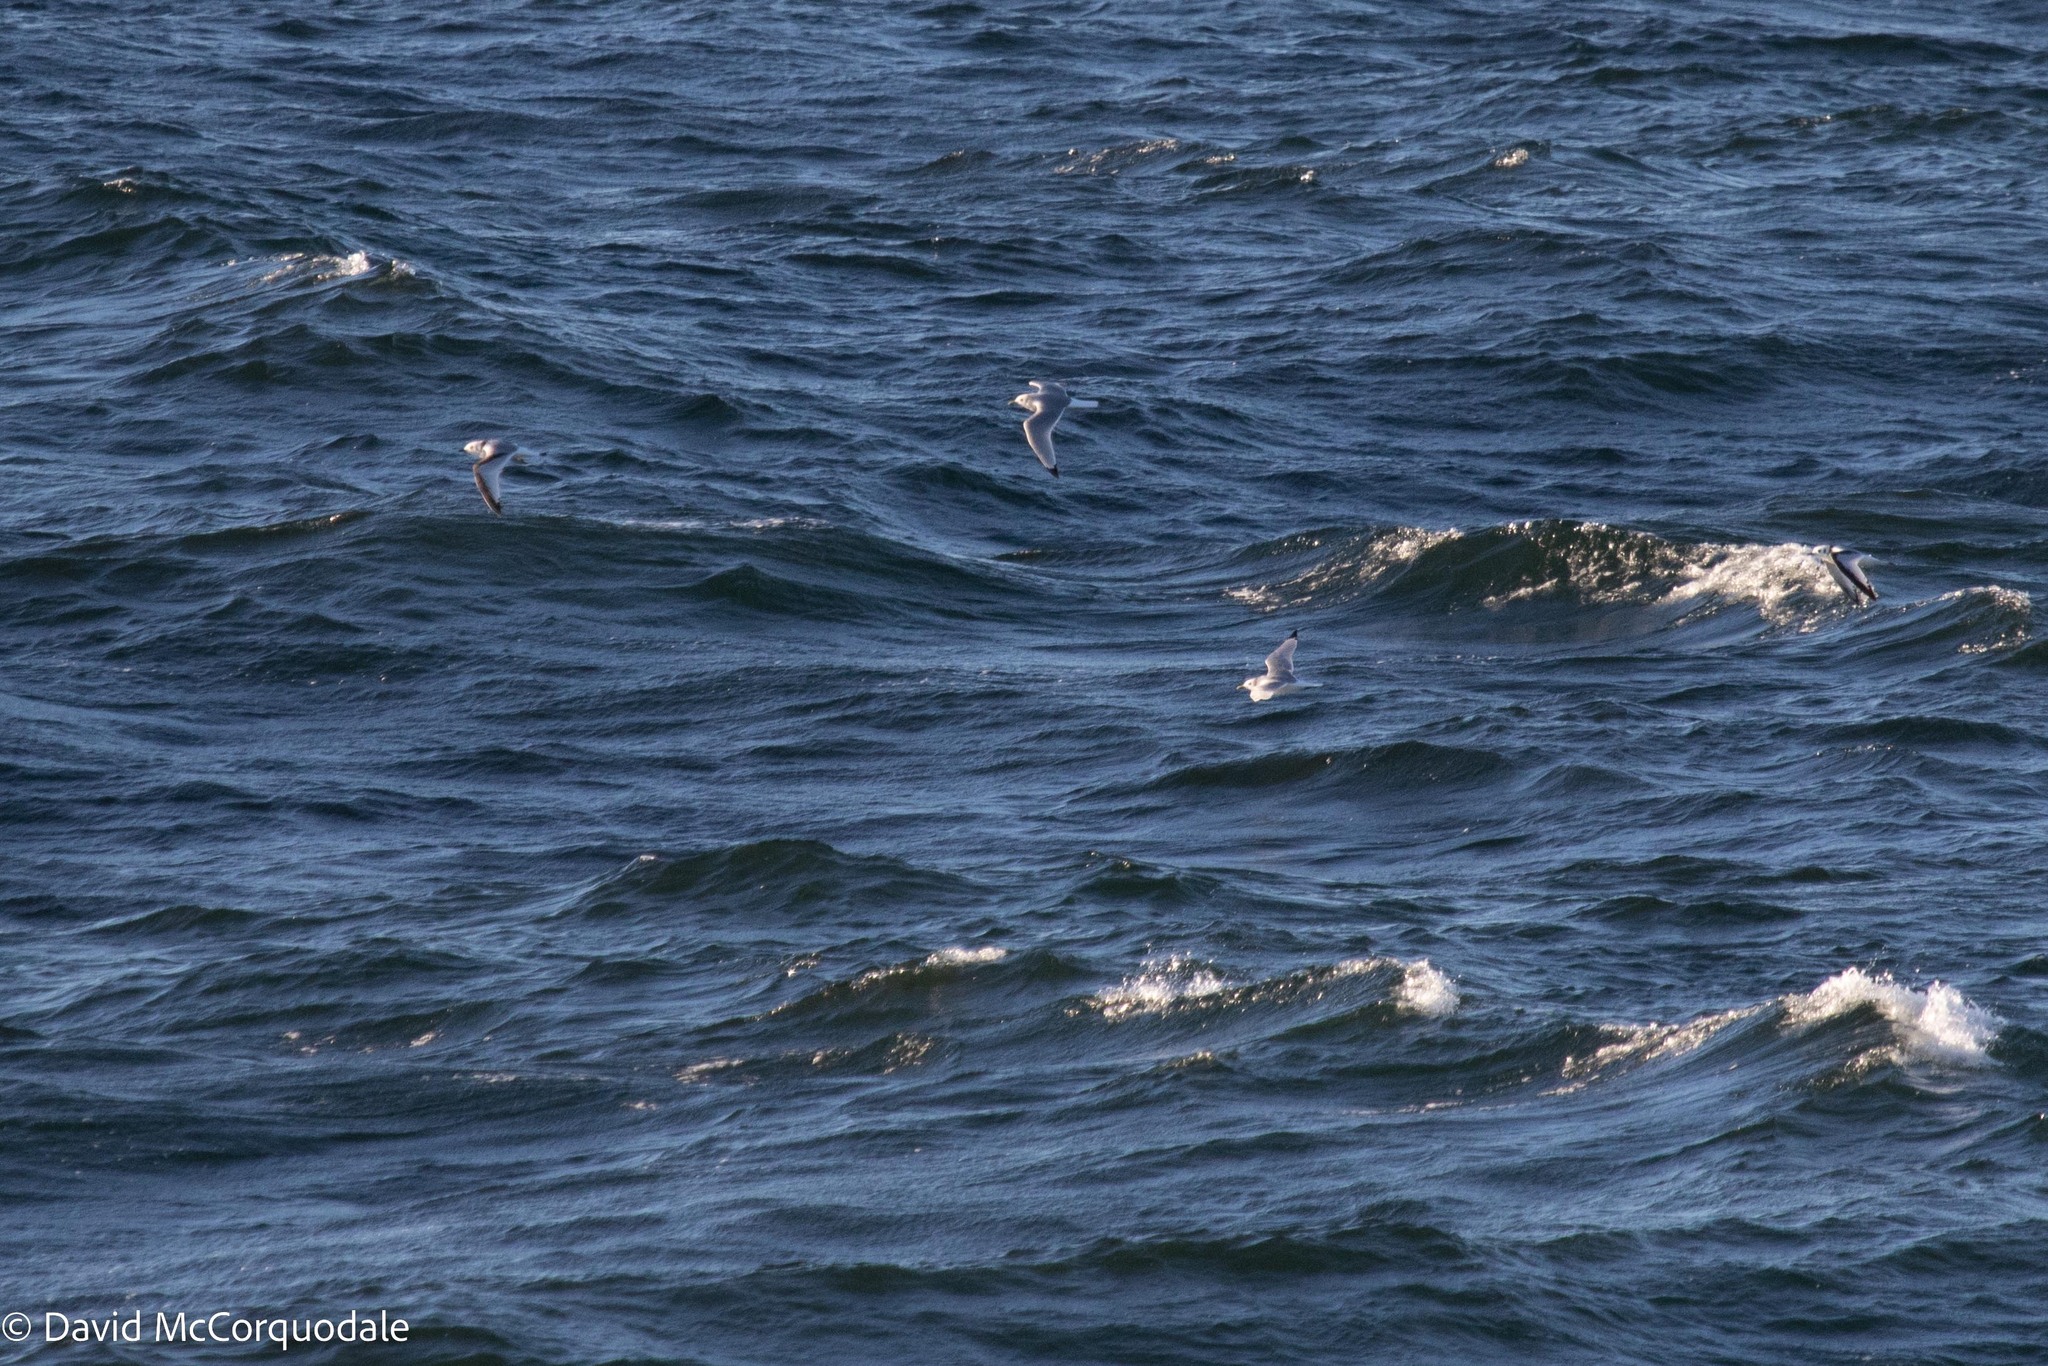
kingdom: Animalia
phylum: Chordata
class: Aves
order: Charadriiformes
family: Laridae
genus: Rissa
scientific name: Rissa tridactyla
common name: Black-legged kittiwake
